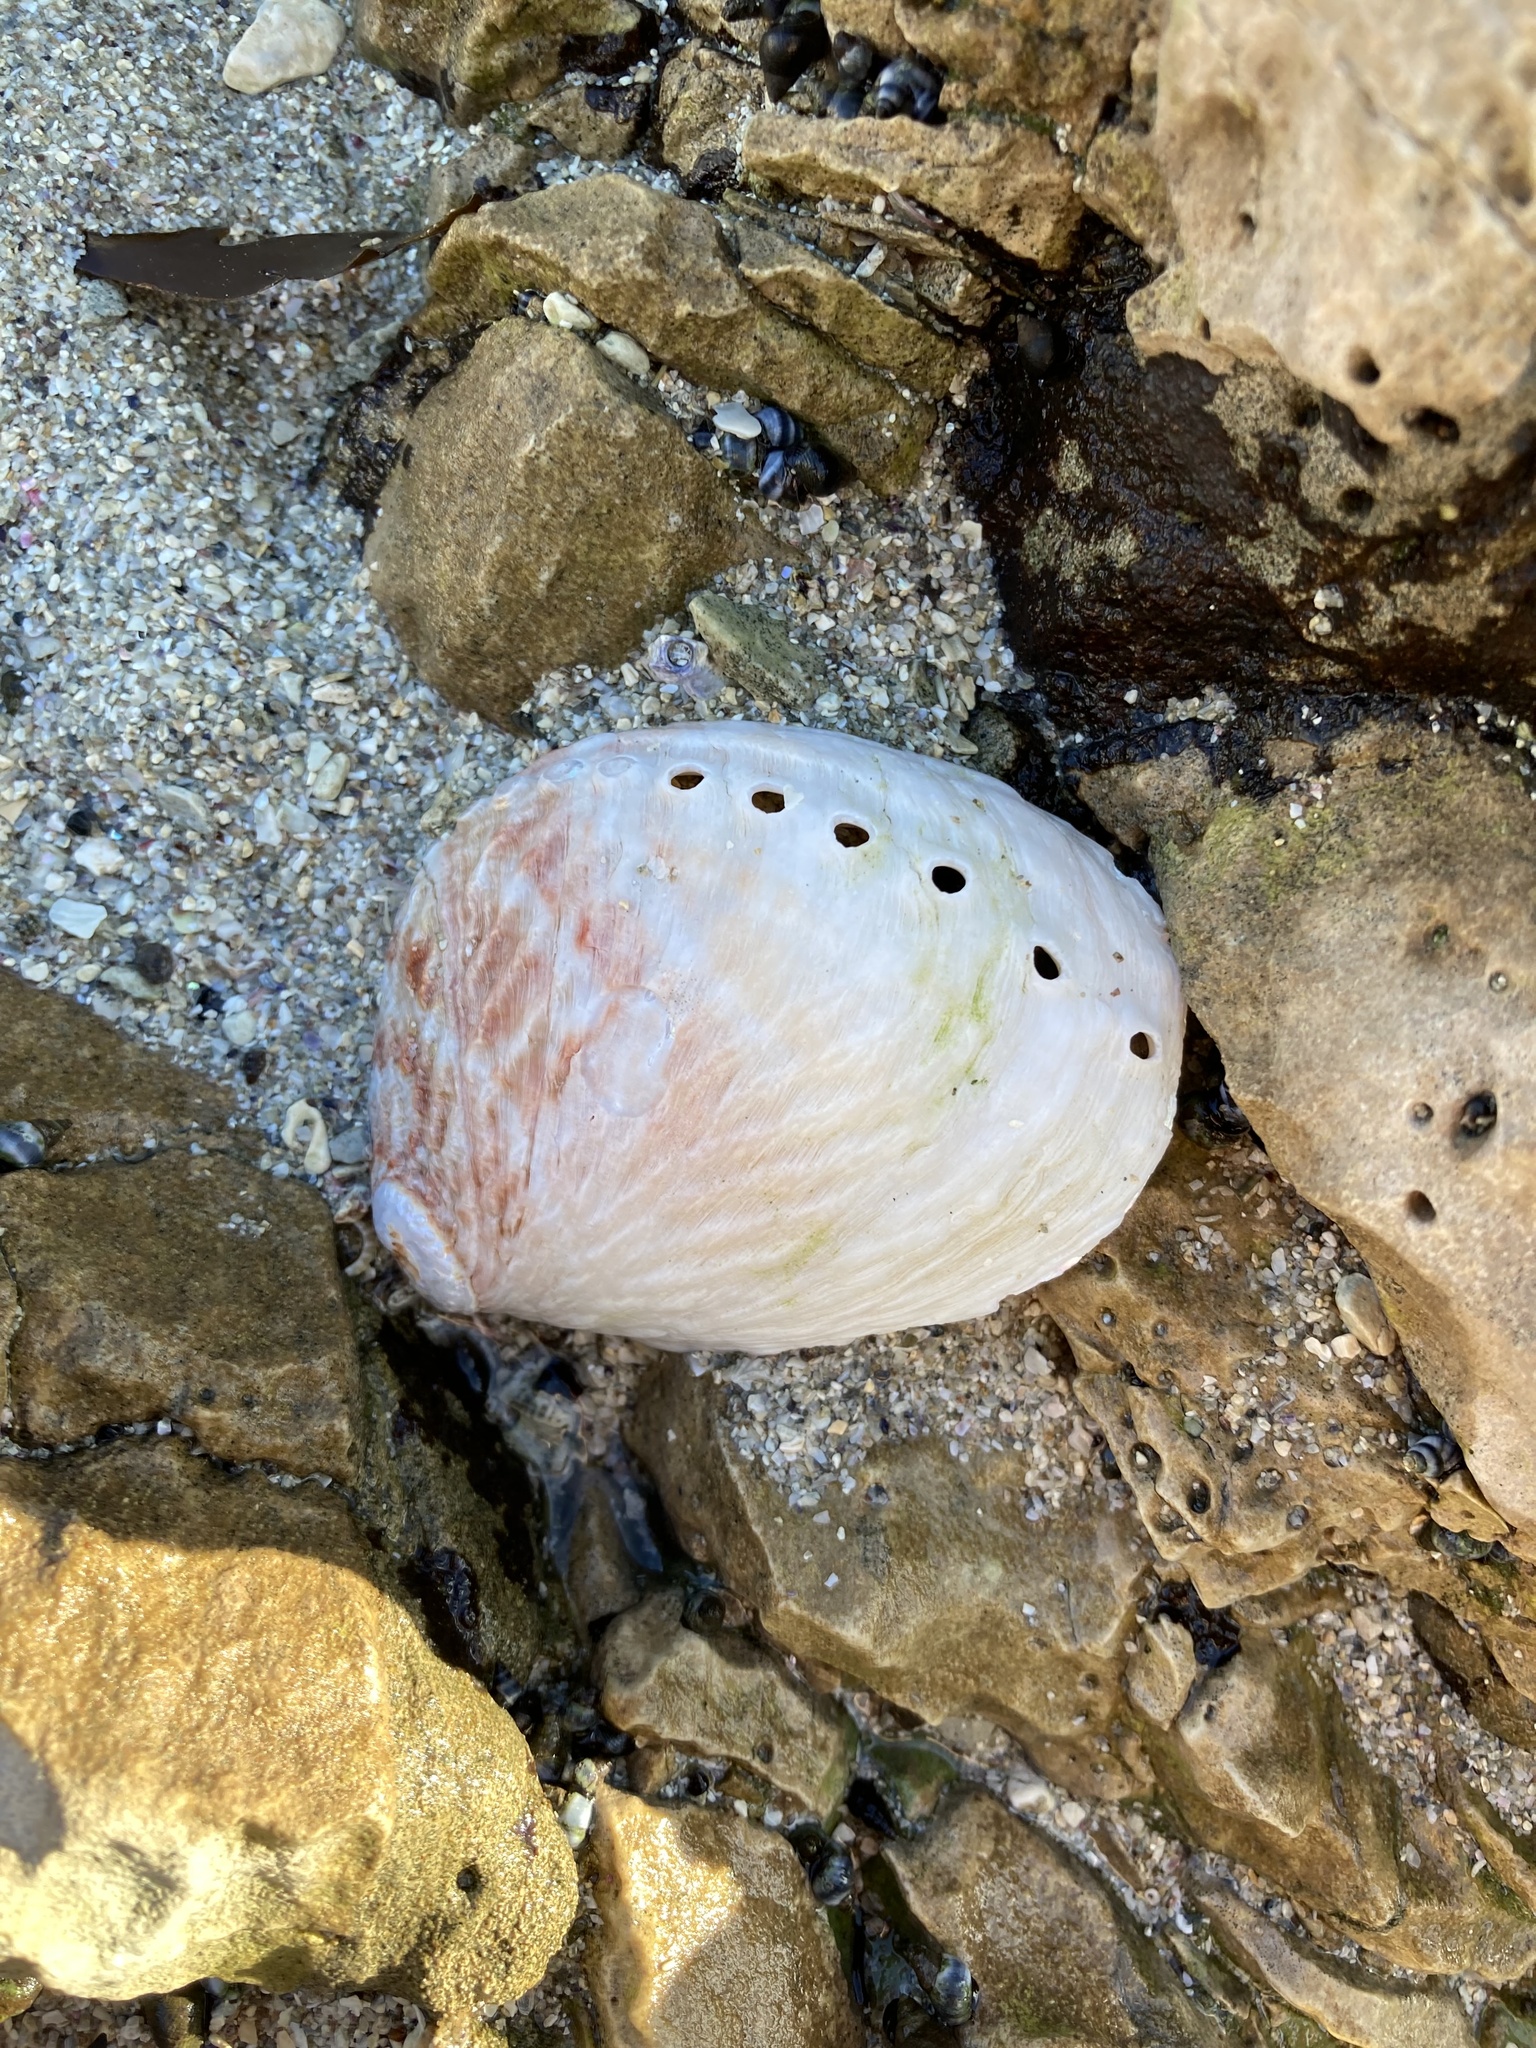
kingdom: Animalia
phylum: Mollusca
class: Gastropoda
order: Lepetellida
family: Haliotidae
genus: Haliotis
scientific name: Haliotis australis
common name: Silver abalone
